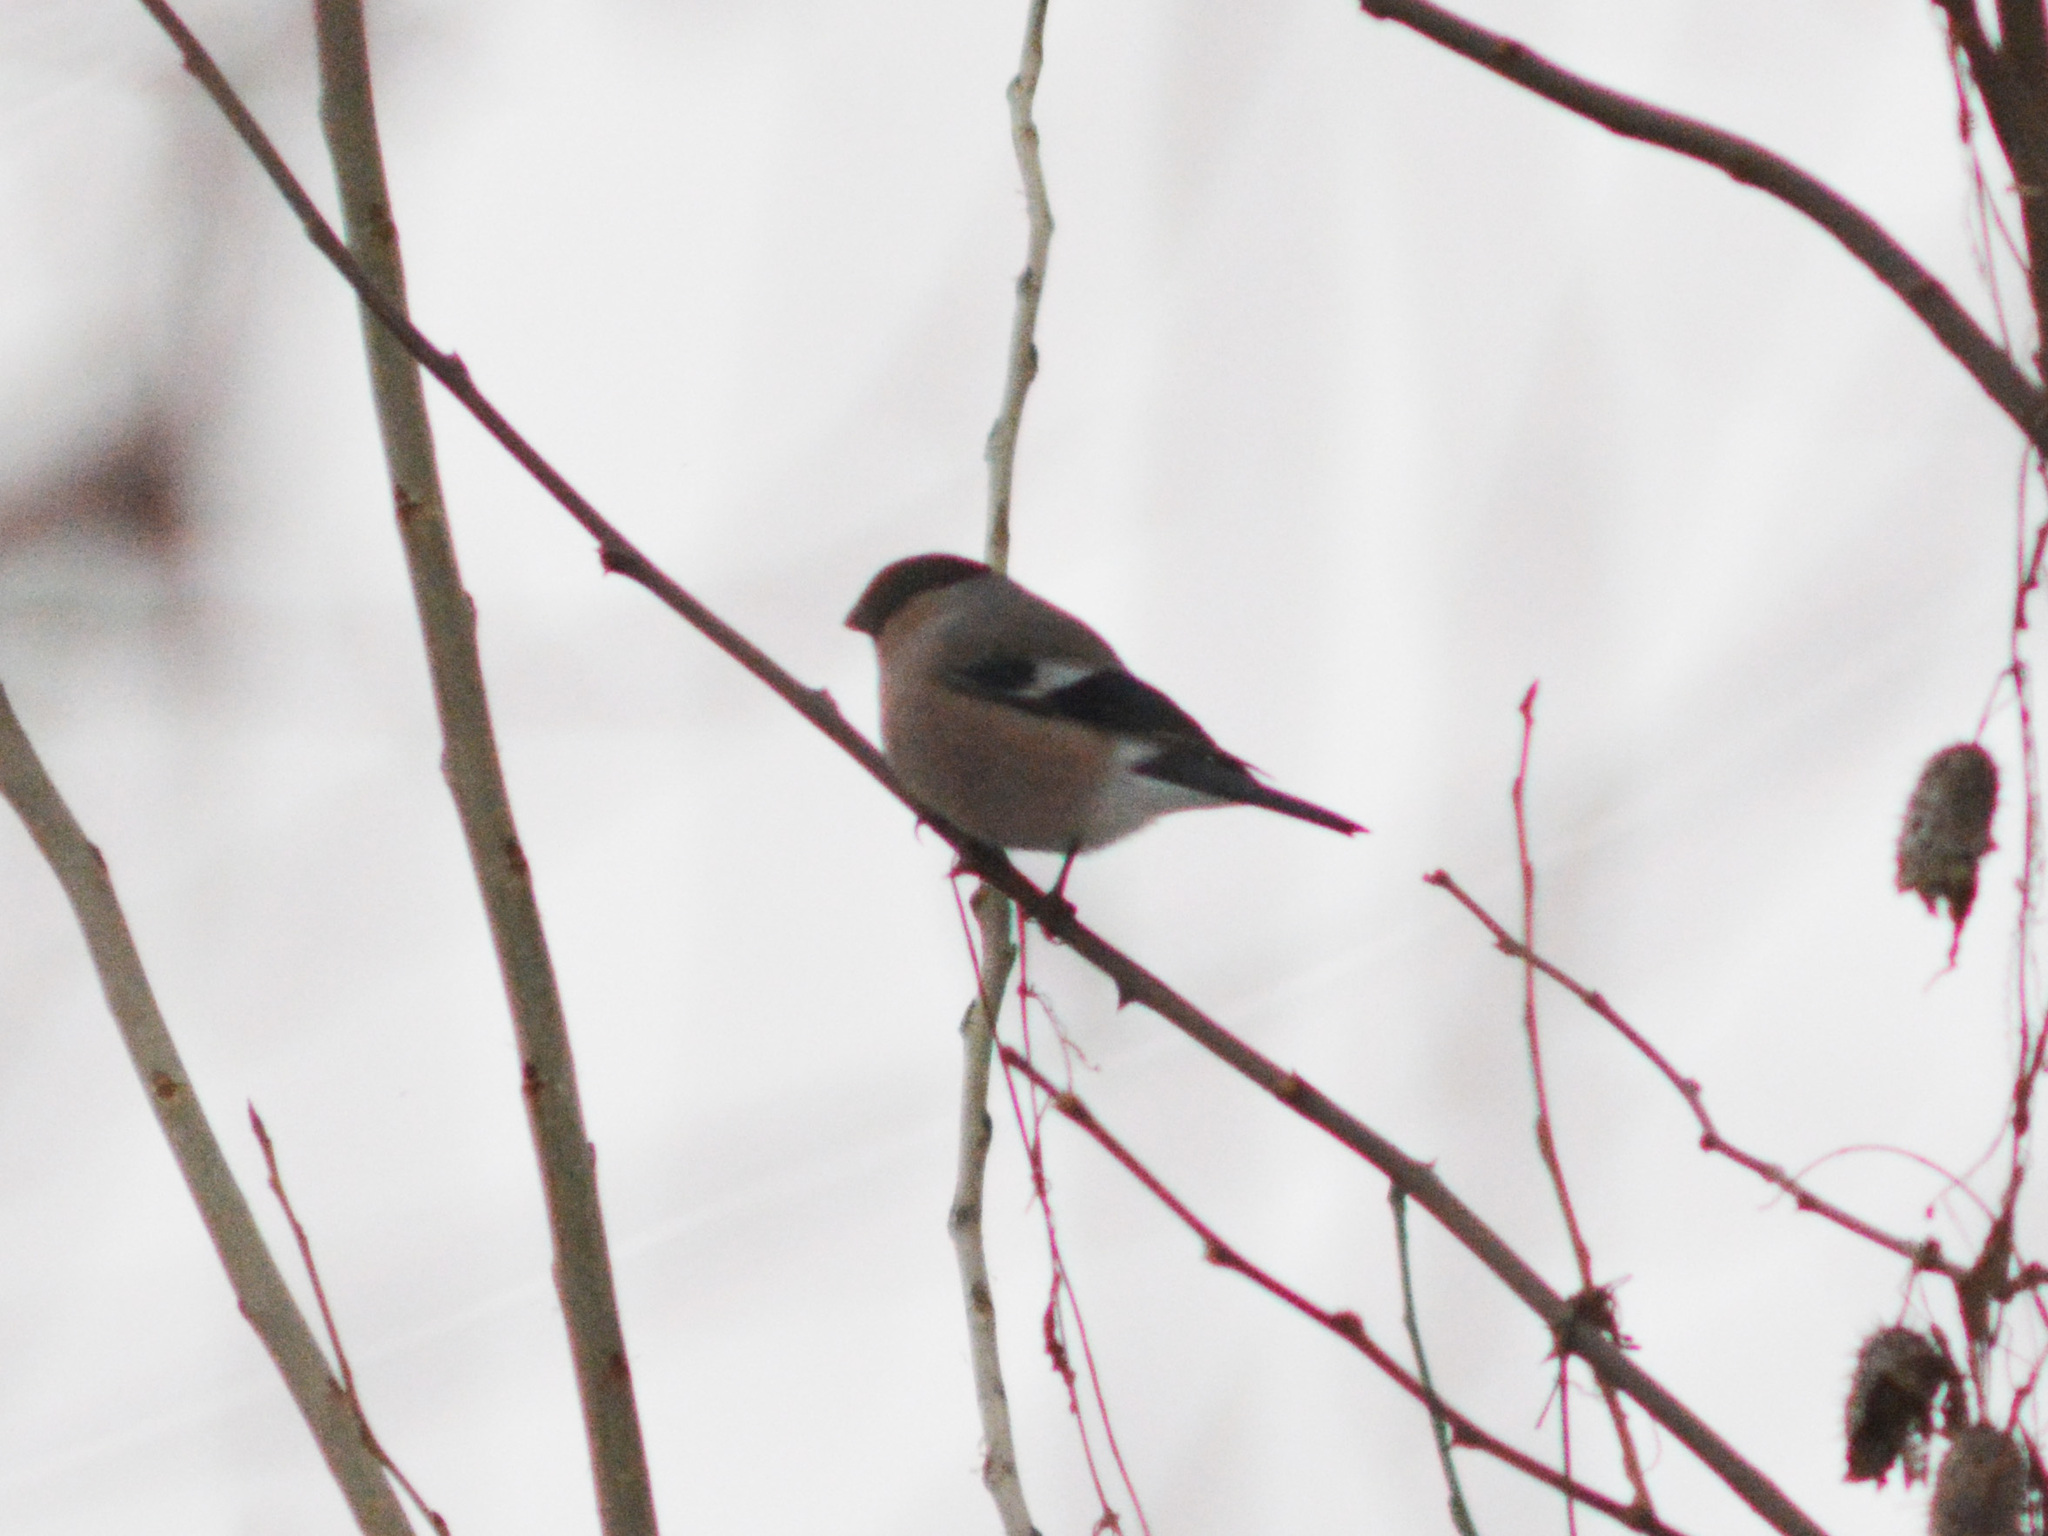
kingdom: Animalia
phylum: Chordata
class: Aves
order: Passeriformes
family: Fringillidae
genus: Pyrrhula
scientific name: Pyrrhula pyrrhula
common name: Eurasian bullfinch
